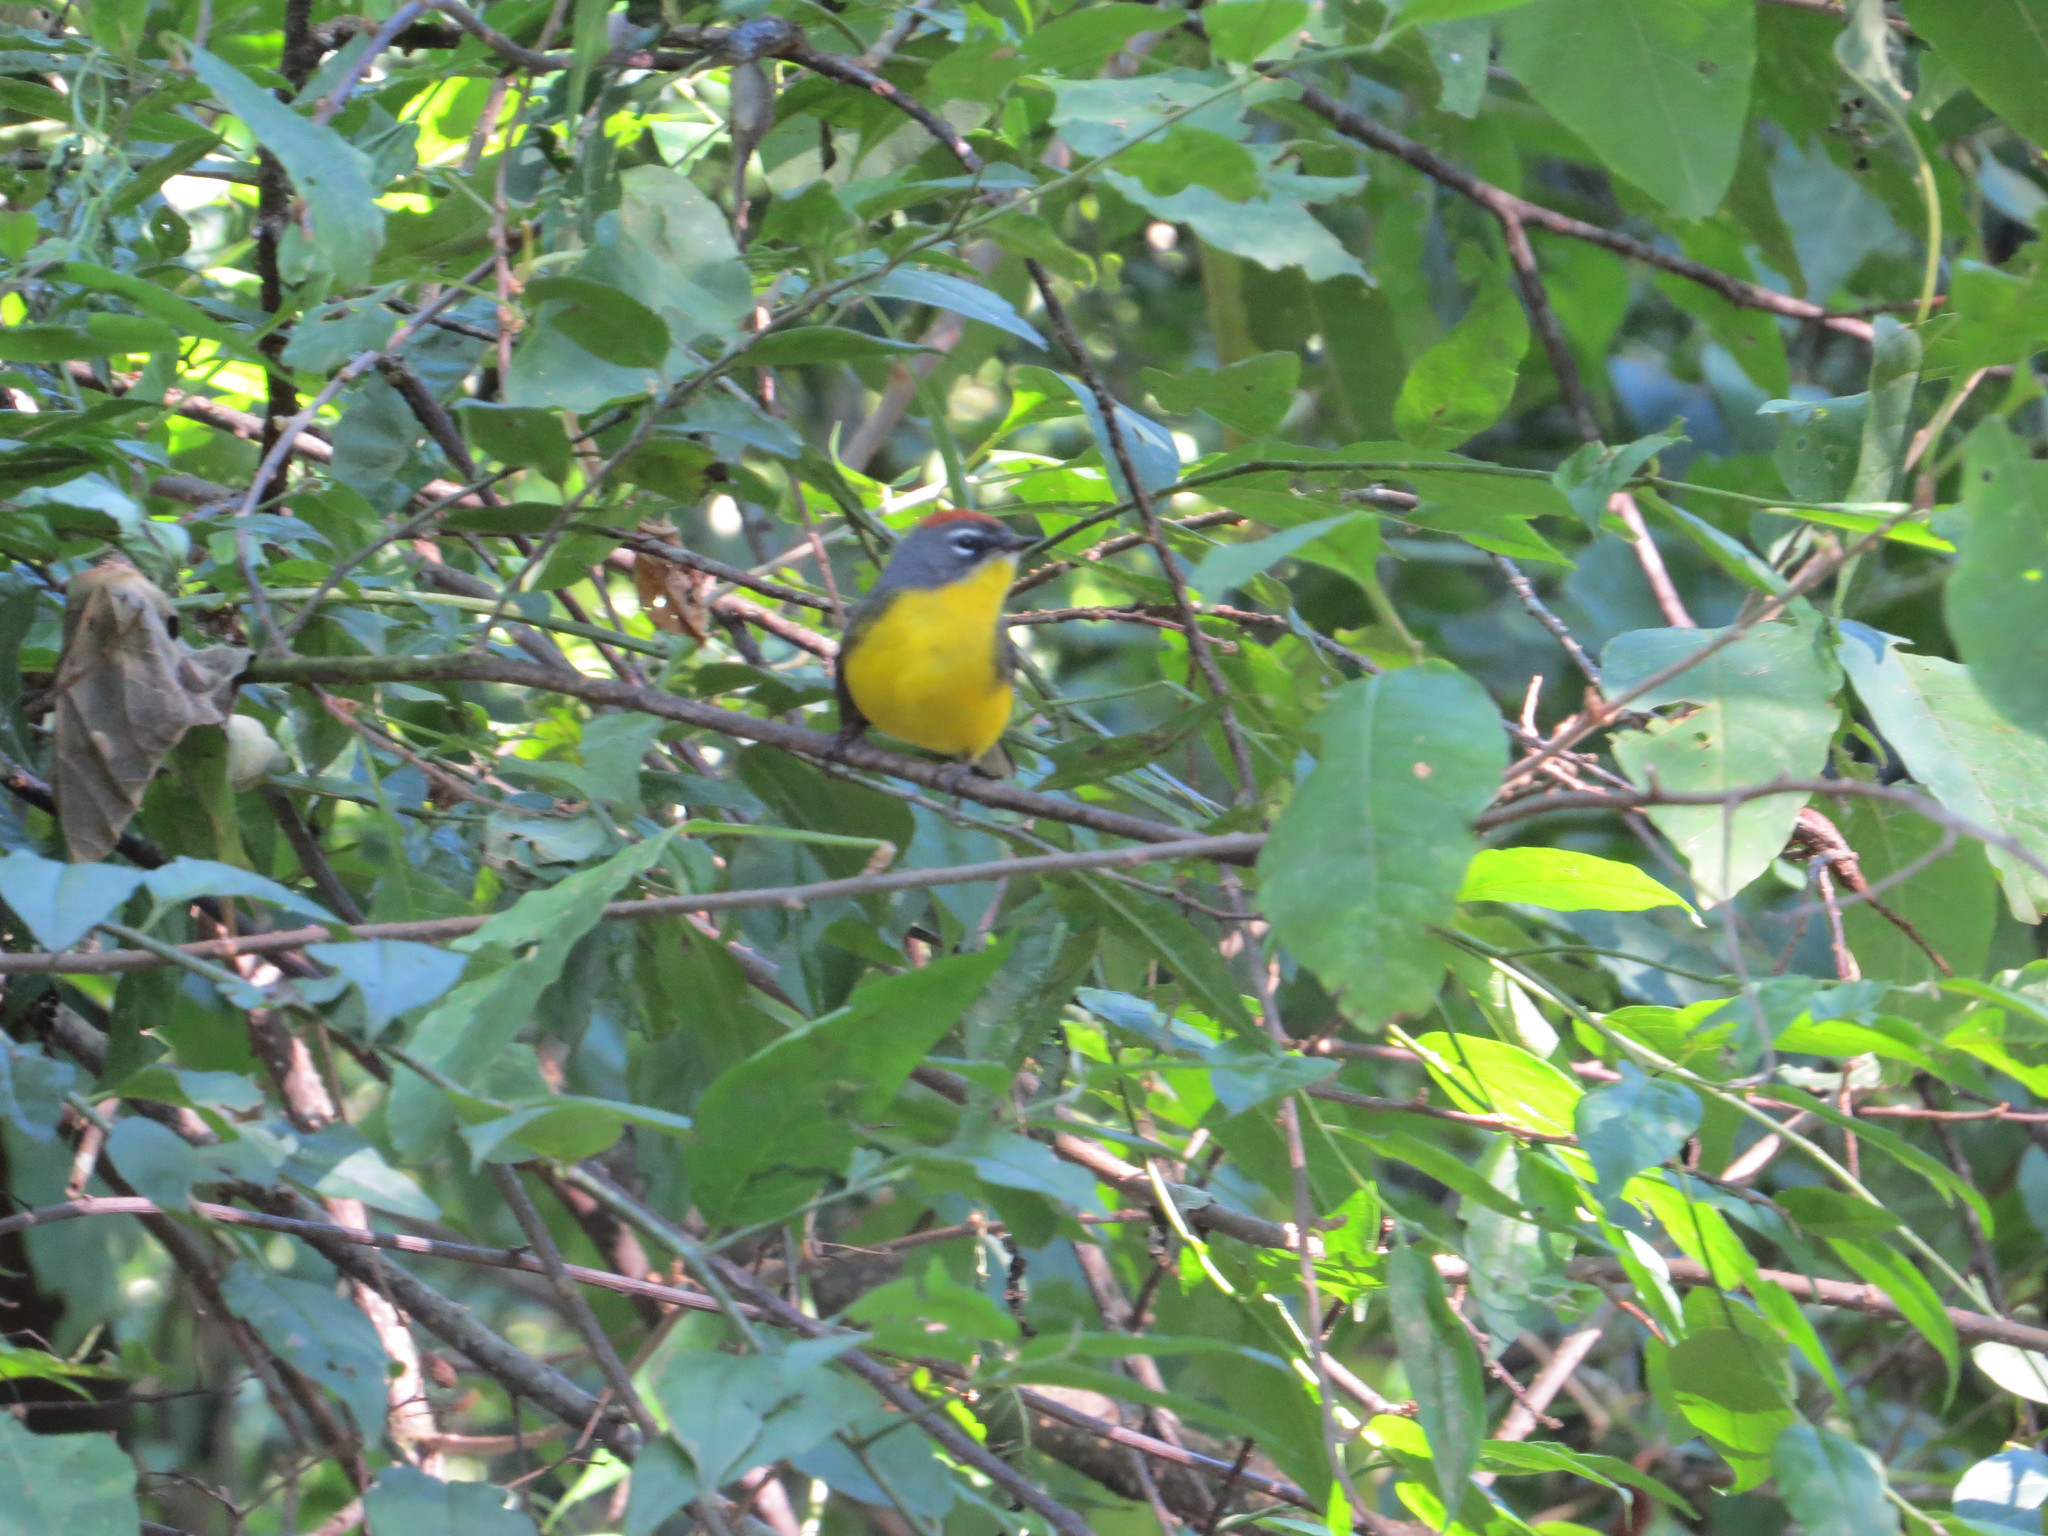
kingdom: Animalia
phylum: Chordata
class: Aves
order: Passeriformes
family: Parulidae
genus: Myioborus
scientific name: Myioborus brunniceps
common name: Brown-capped whitestart
